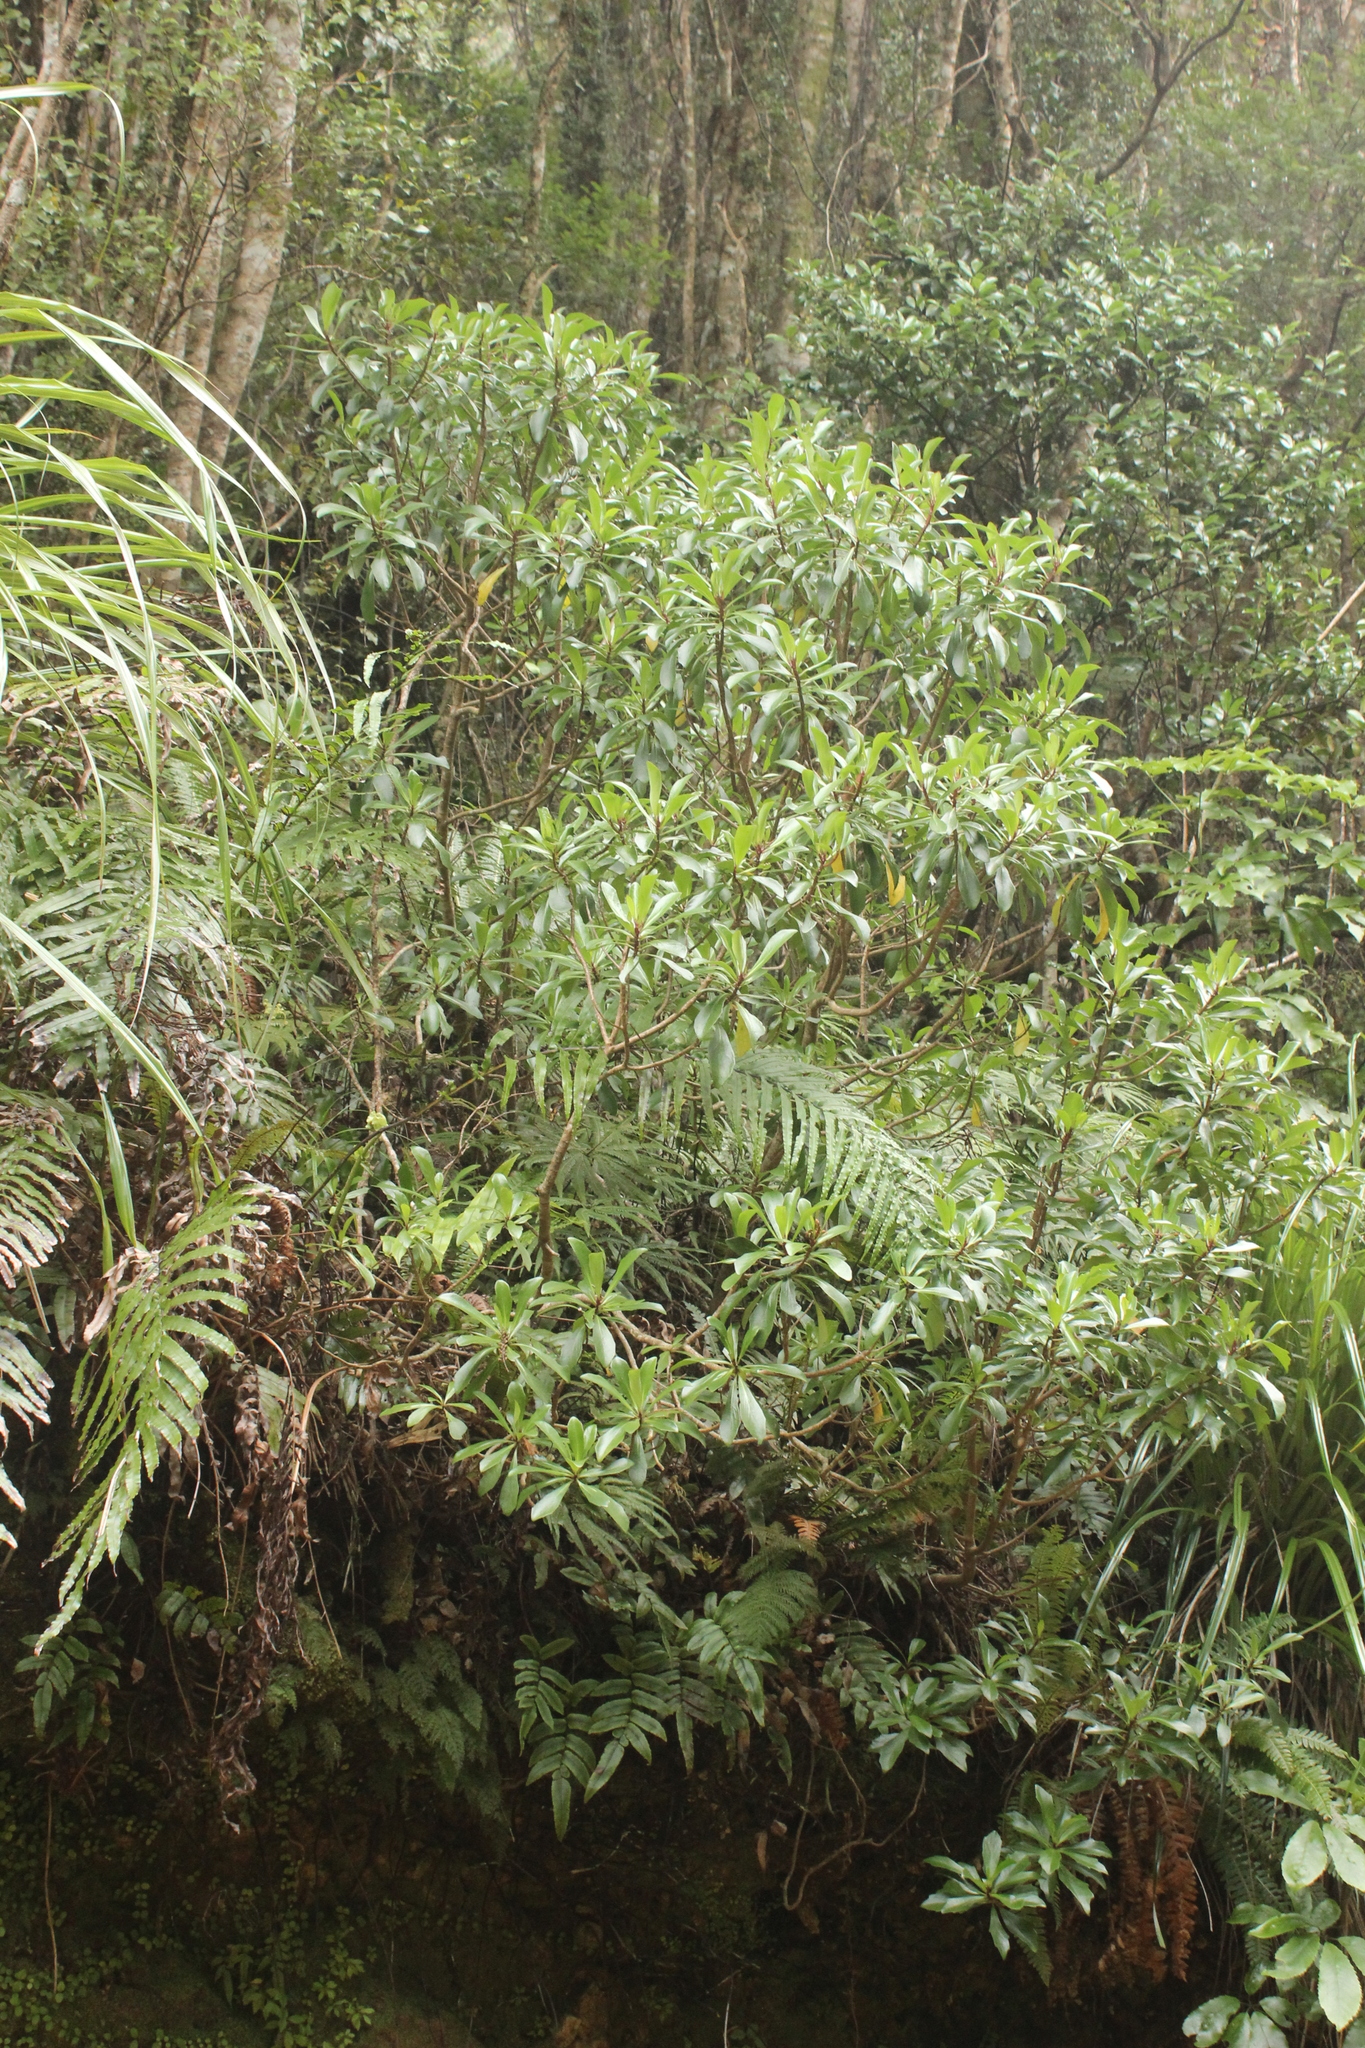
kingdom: Plantae
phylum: Tracheophyta
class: Magnoliopsida
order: Asterales
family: Asteraceae
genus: Brachyglottis
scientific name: Brachyglottis kirkii
